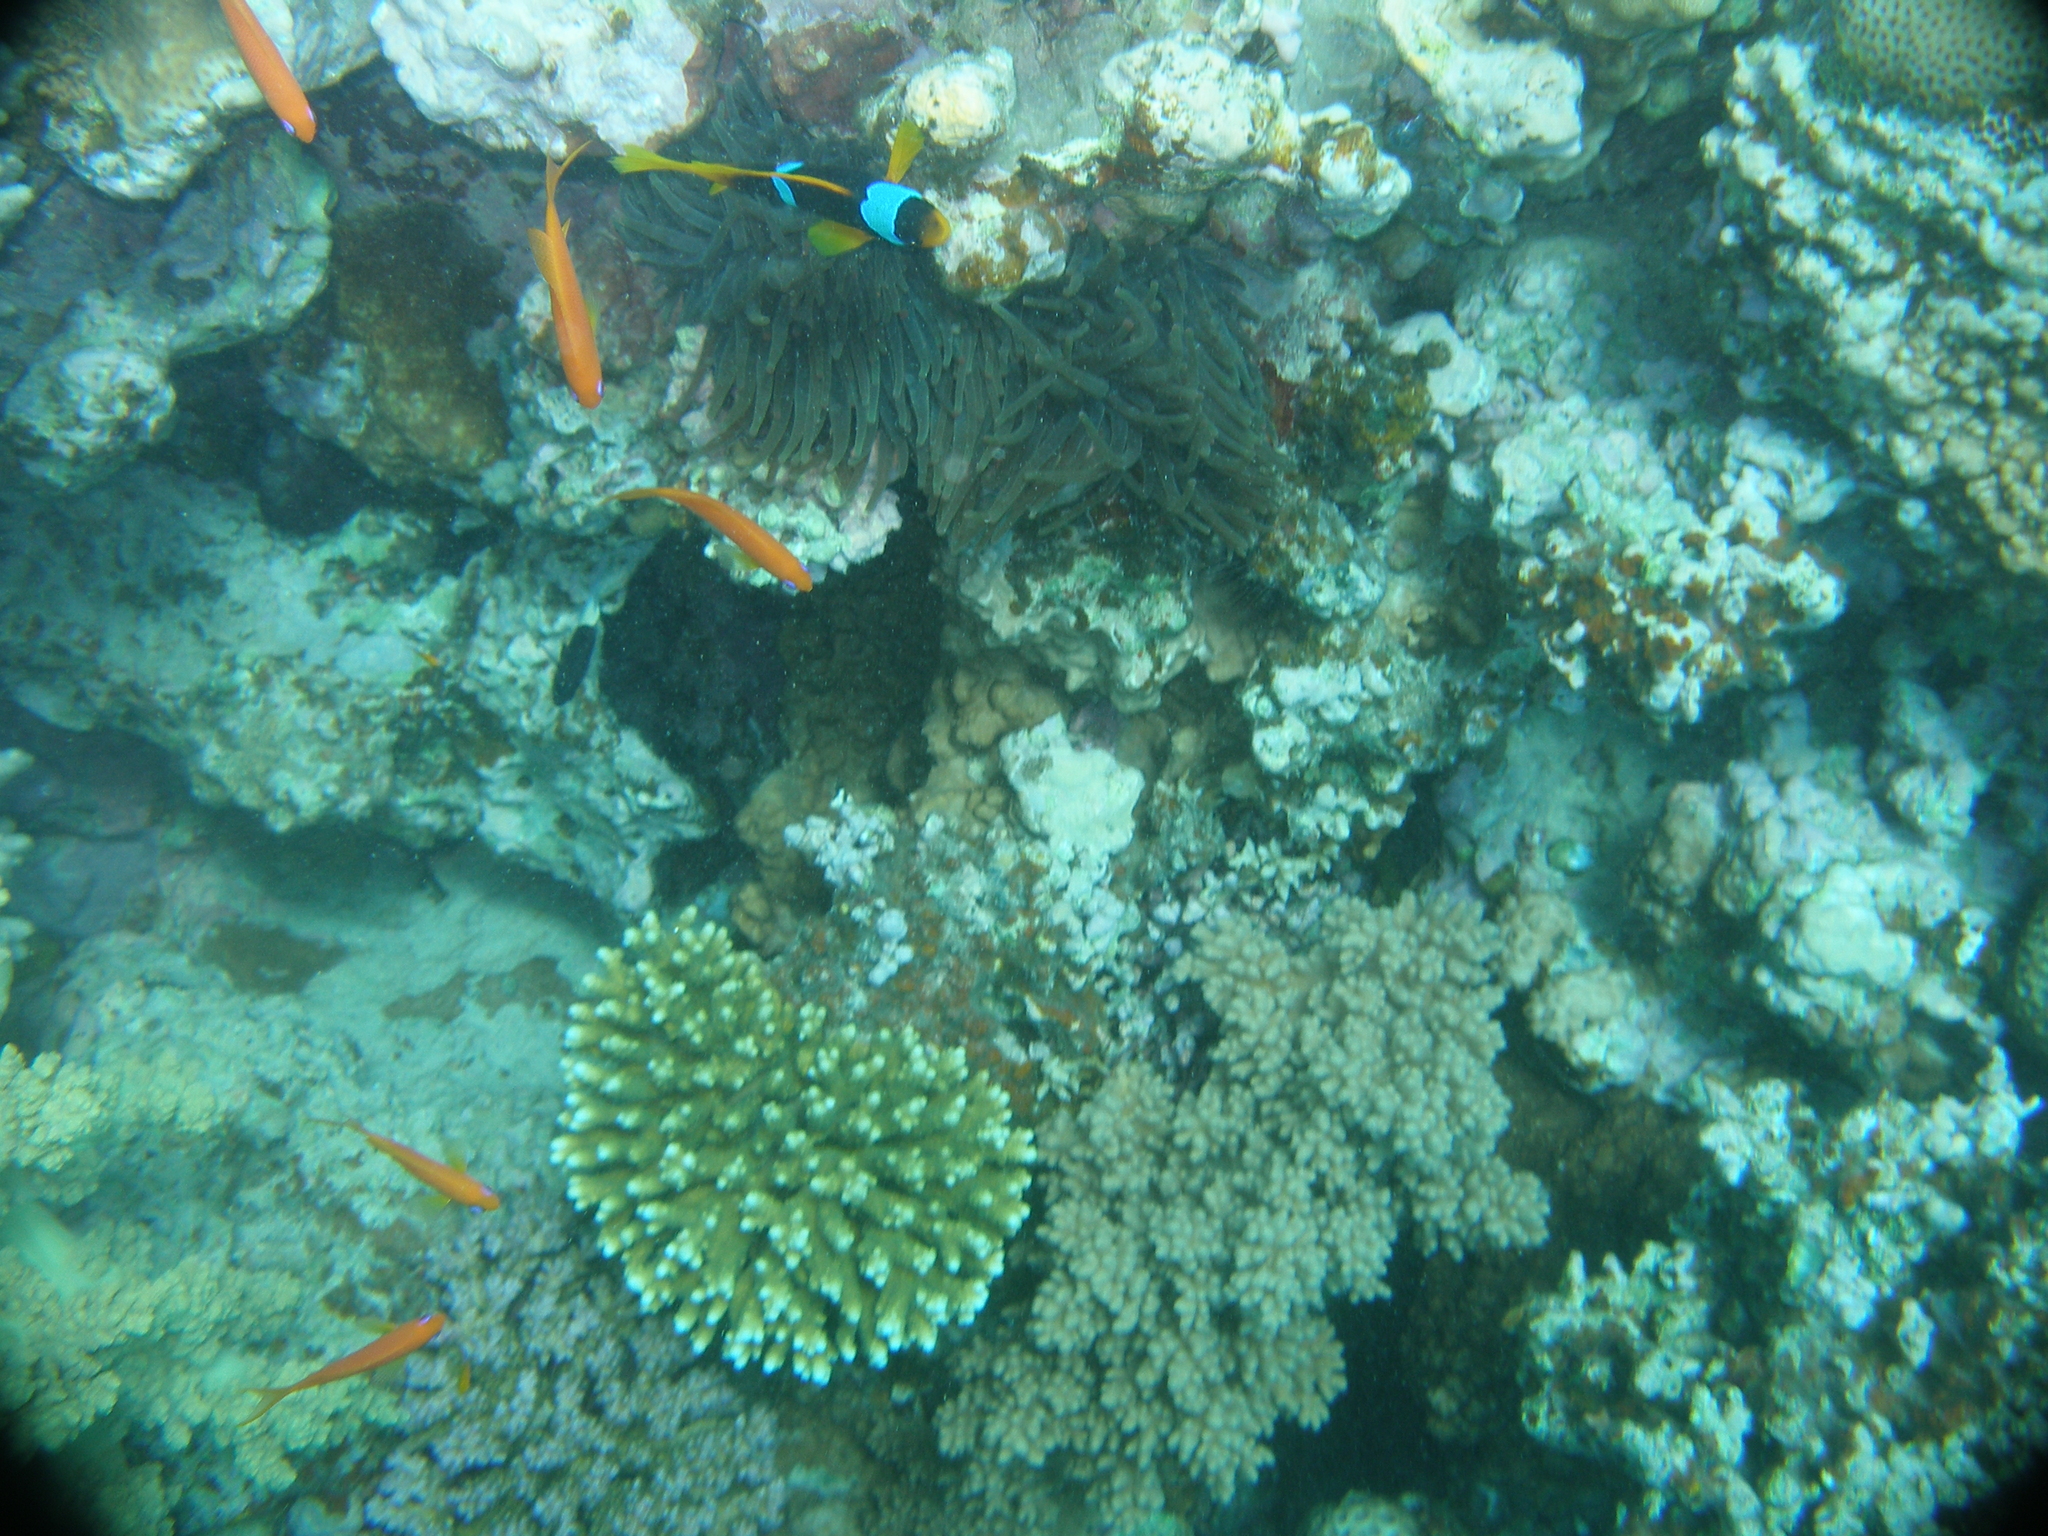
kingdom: Animalia
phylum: Chordata
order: Perciformes
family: Pomacentridae
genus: Amphiprion
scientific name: Amphiprion bicinctus
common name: Two-banded anemonefish
